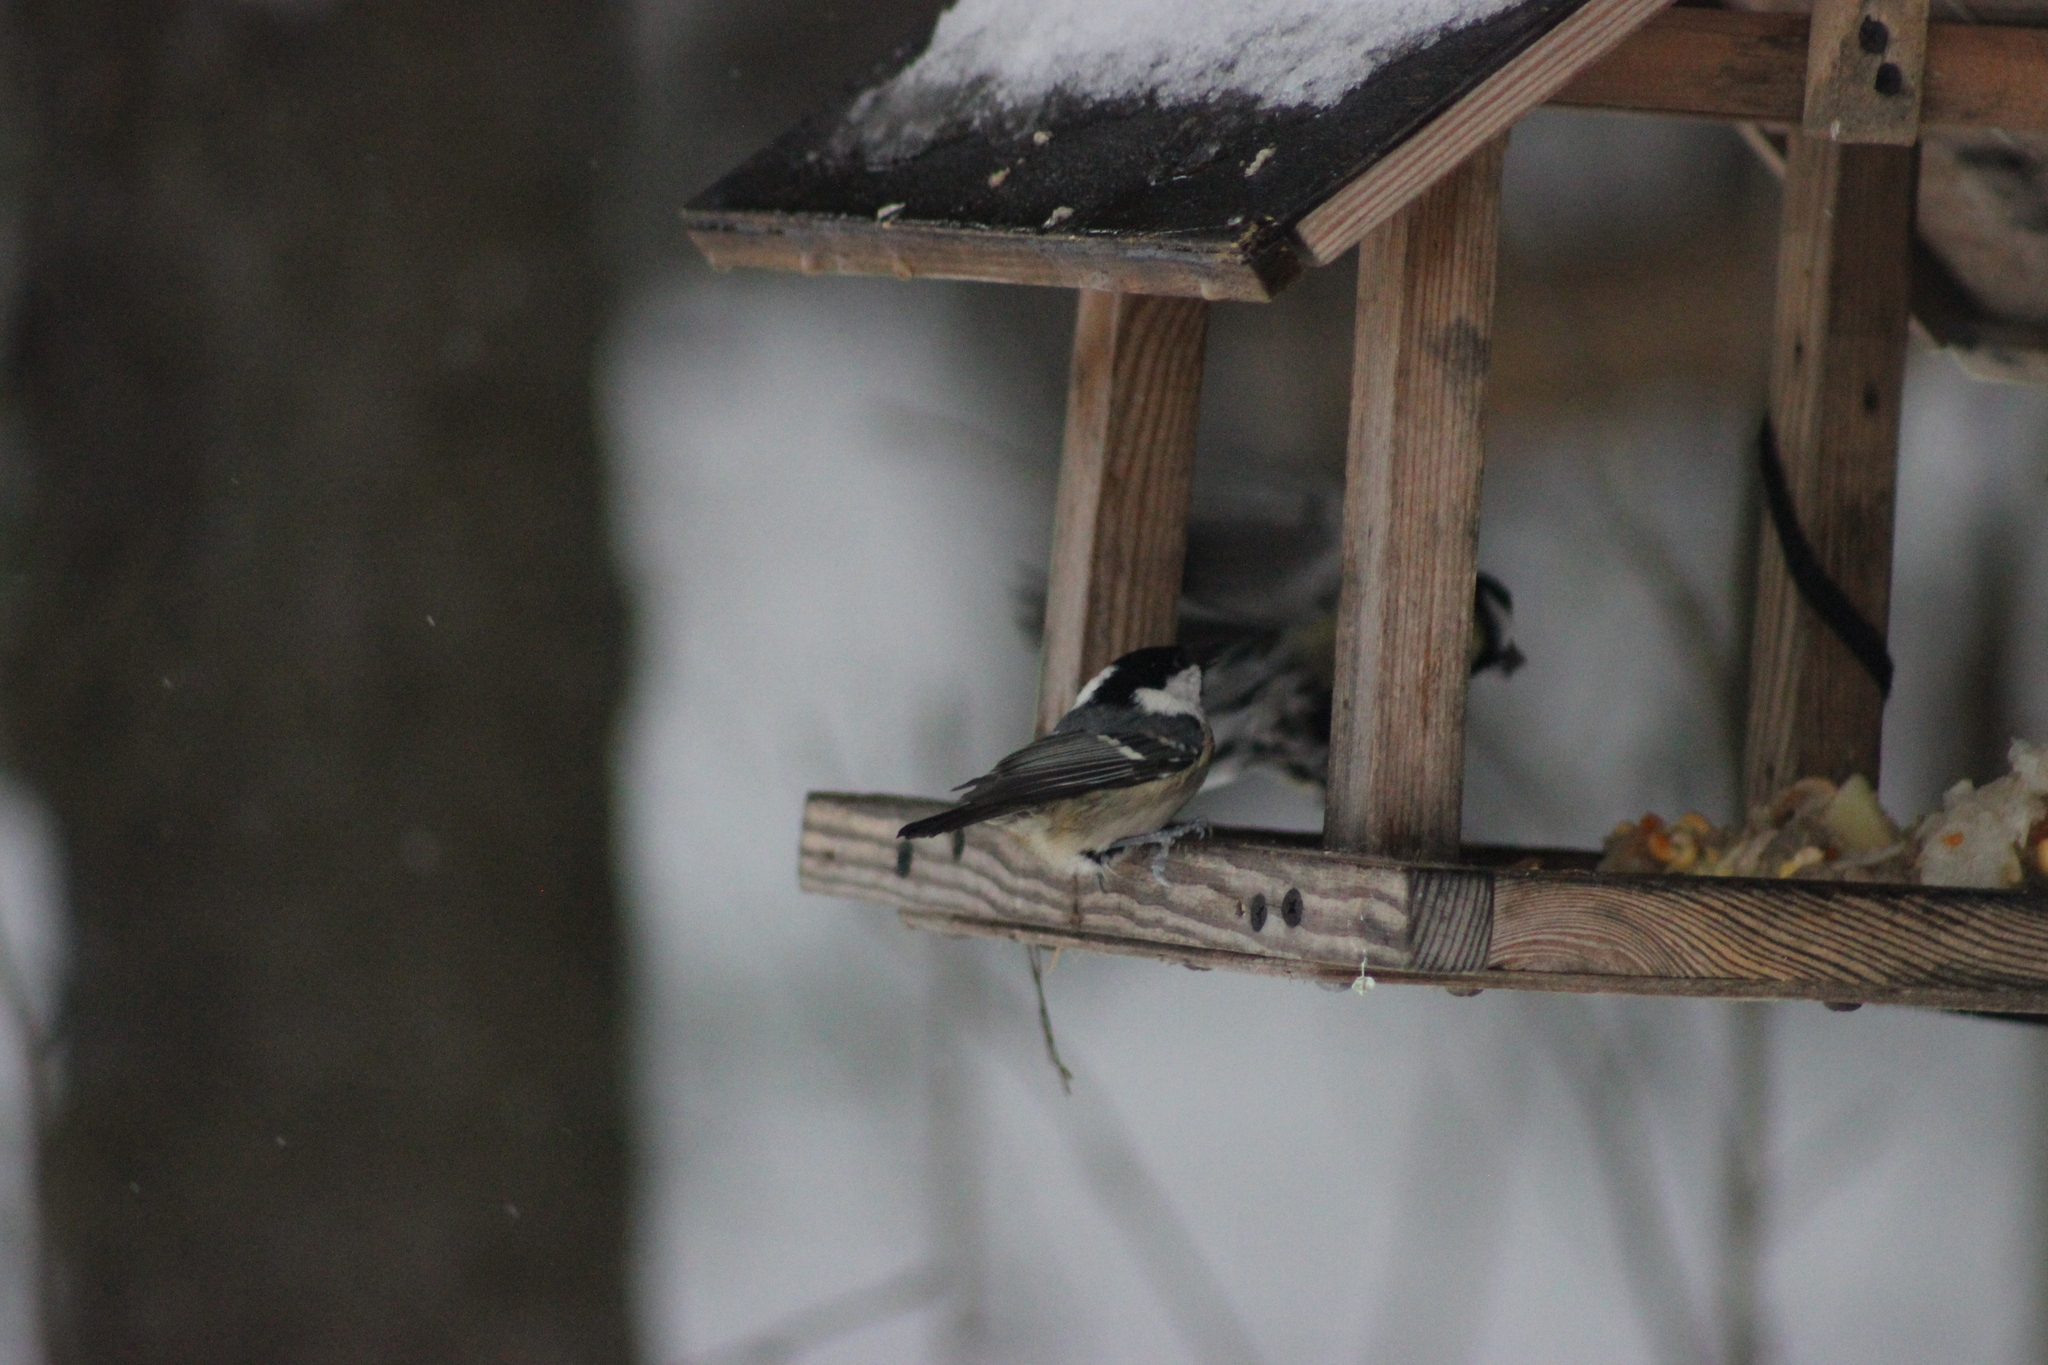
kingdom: Animalia
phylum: Chordata
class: Aves
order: Passeriformes
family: Paridae
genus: Periparus
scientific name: Periparus ater
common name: Coal tit
